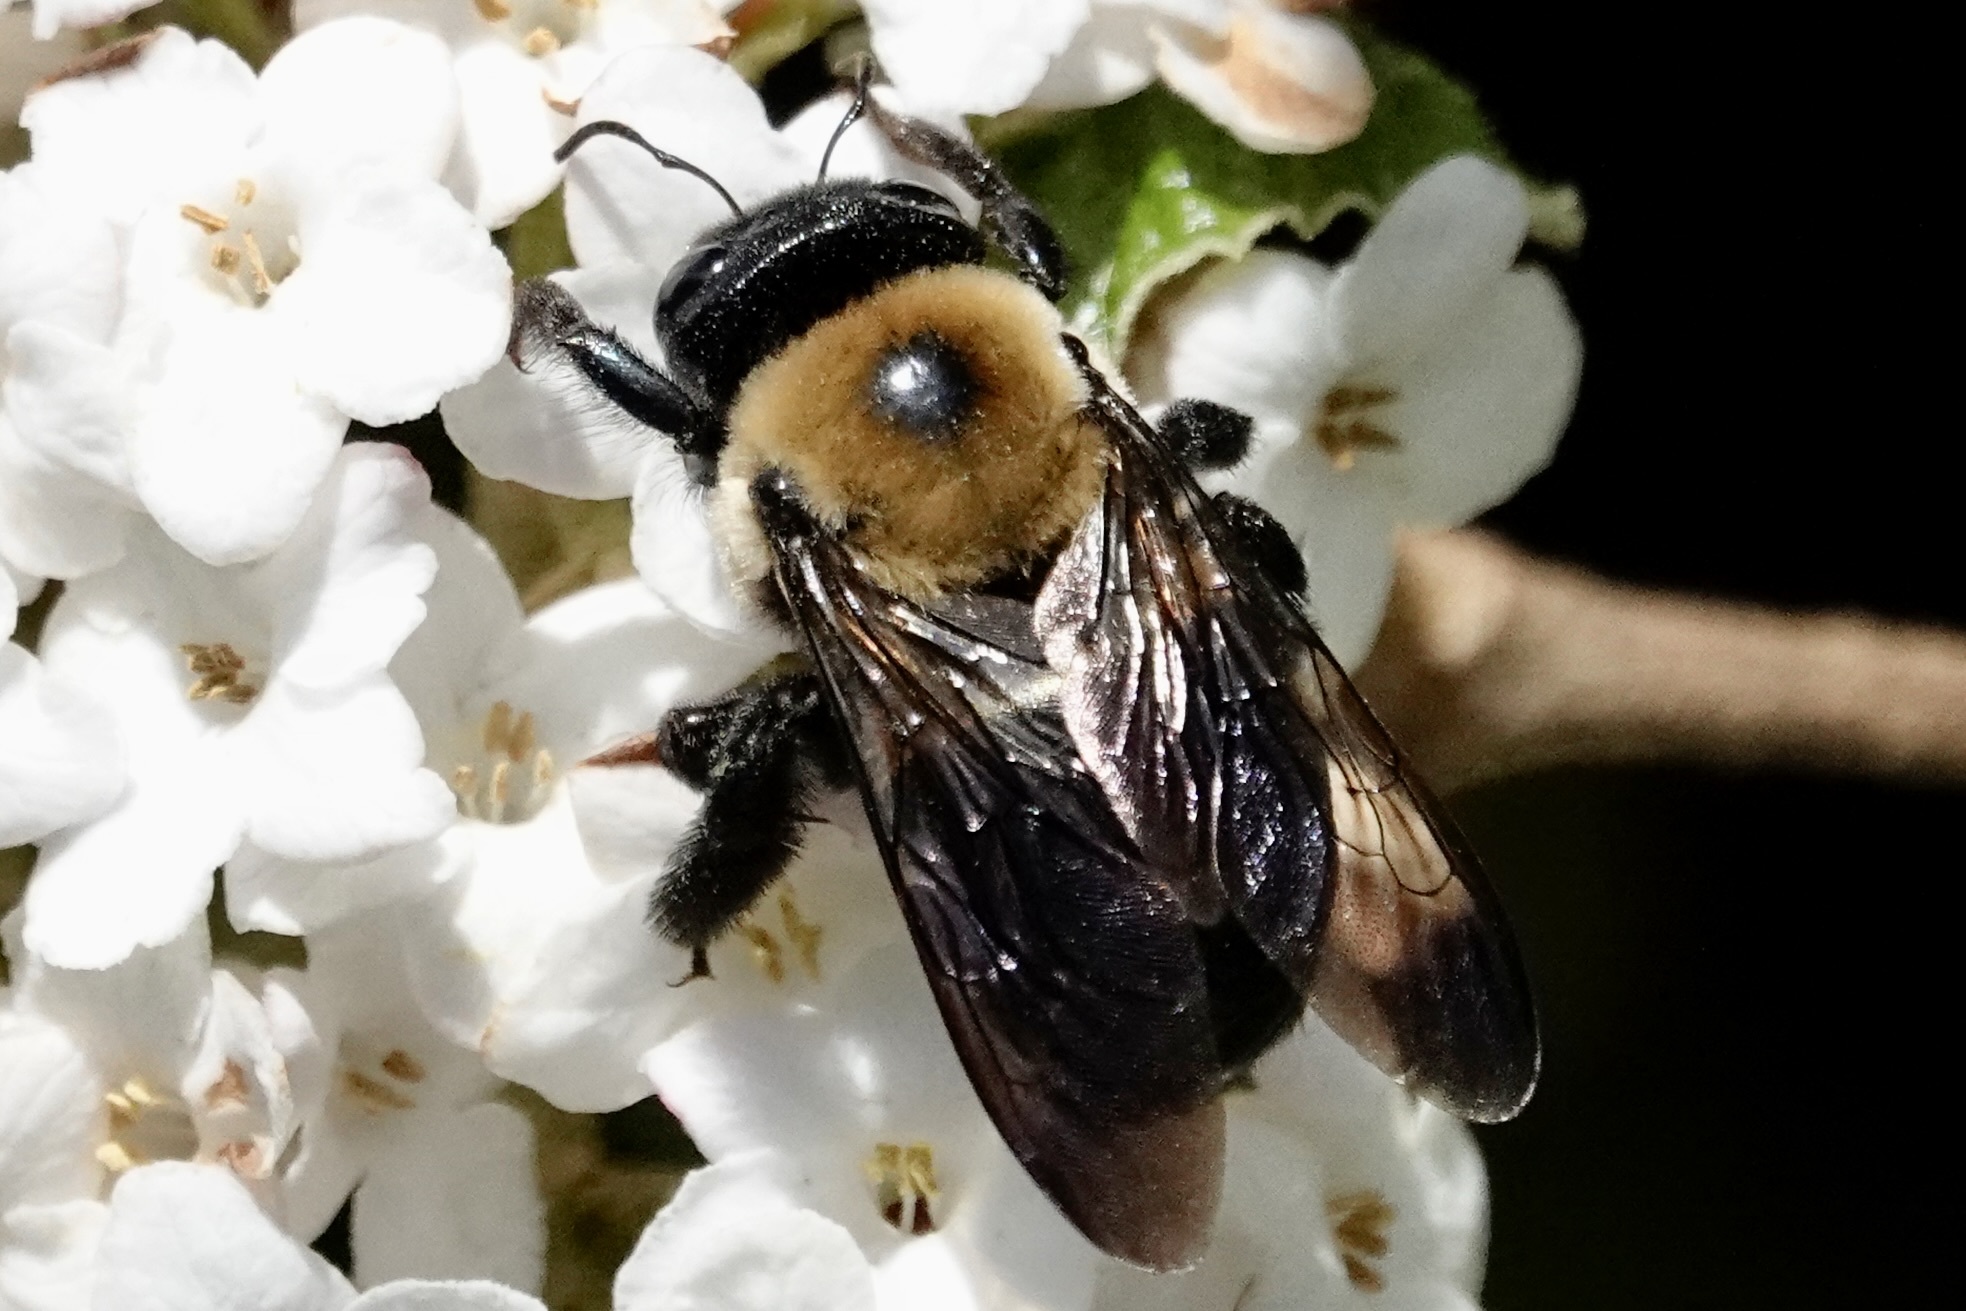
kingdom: Animalia
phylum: Arthropoda
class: Insecta
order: Hymenoptera
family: Apidae
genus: Xylocopa
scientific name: Xylocopa virginica
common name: Carpenter bee
